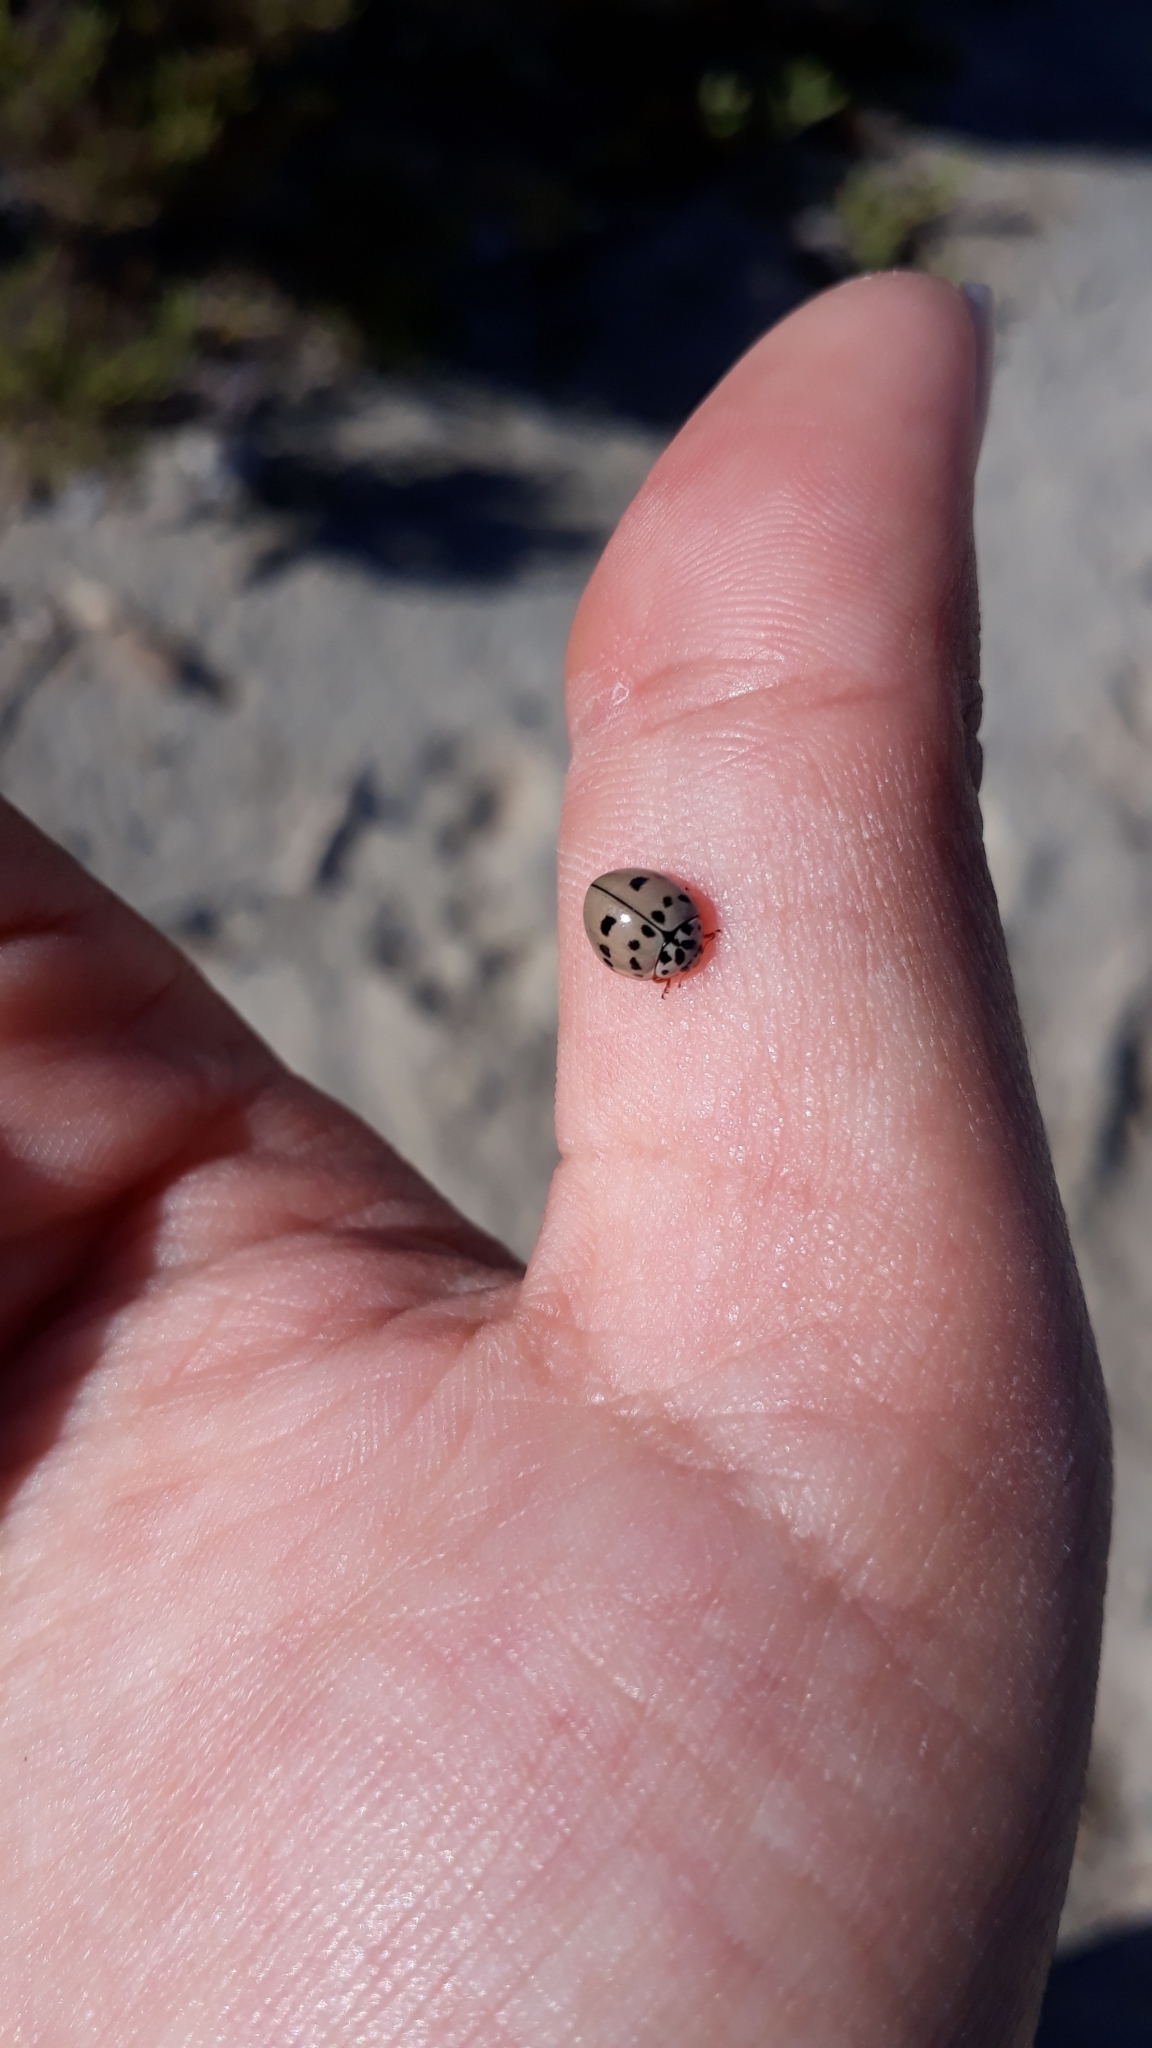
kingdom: Animalia
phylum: Arthropoda
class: Insecta
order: Coleoptera
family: Coccinellidae
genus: Olla
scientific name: Olla v-nigrum
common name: Ashy gray lady beetle
